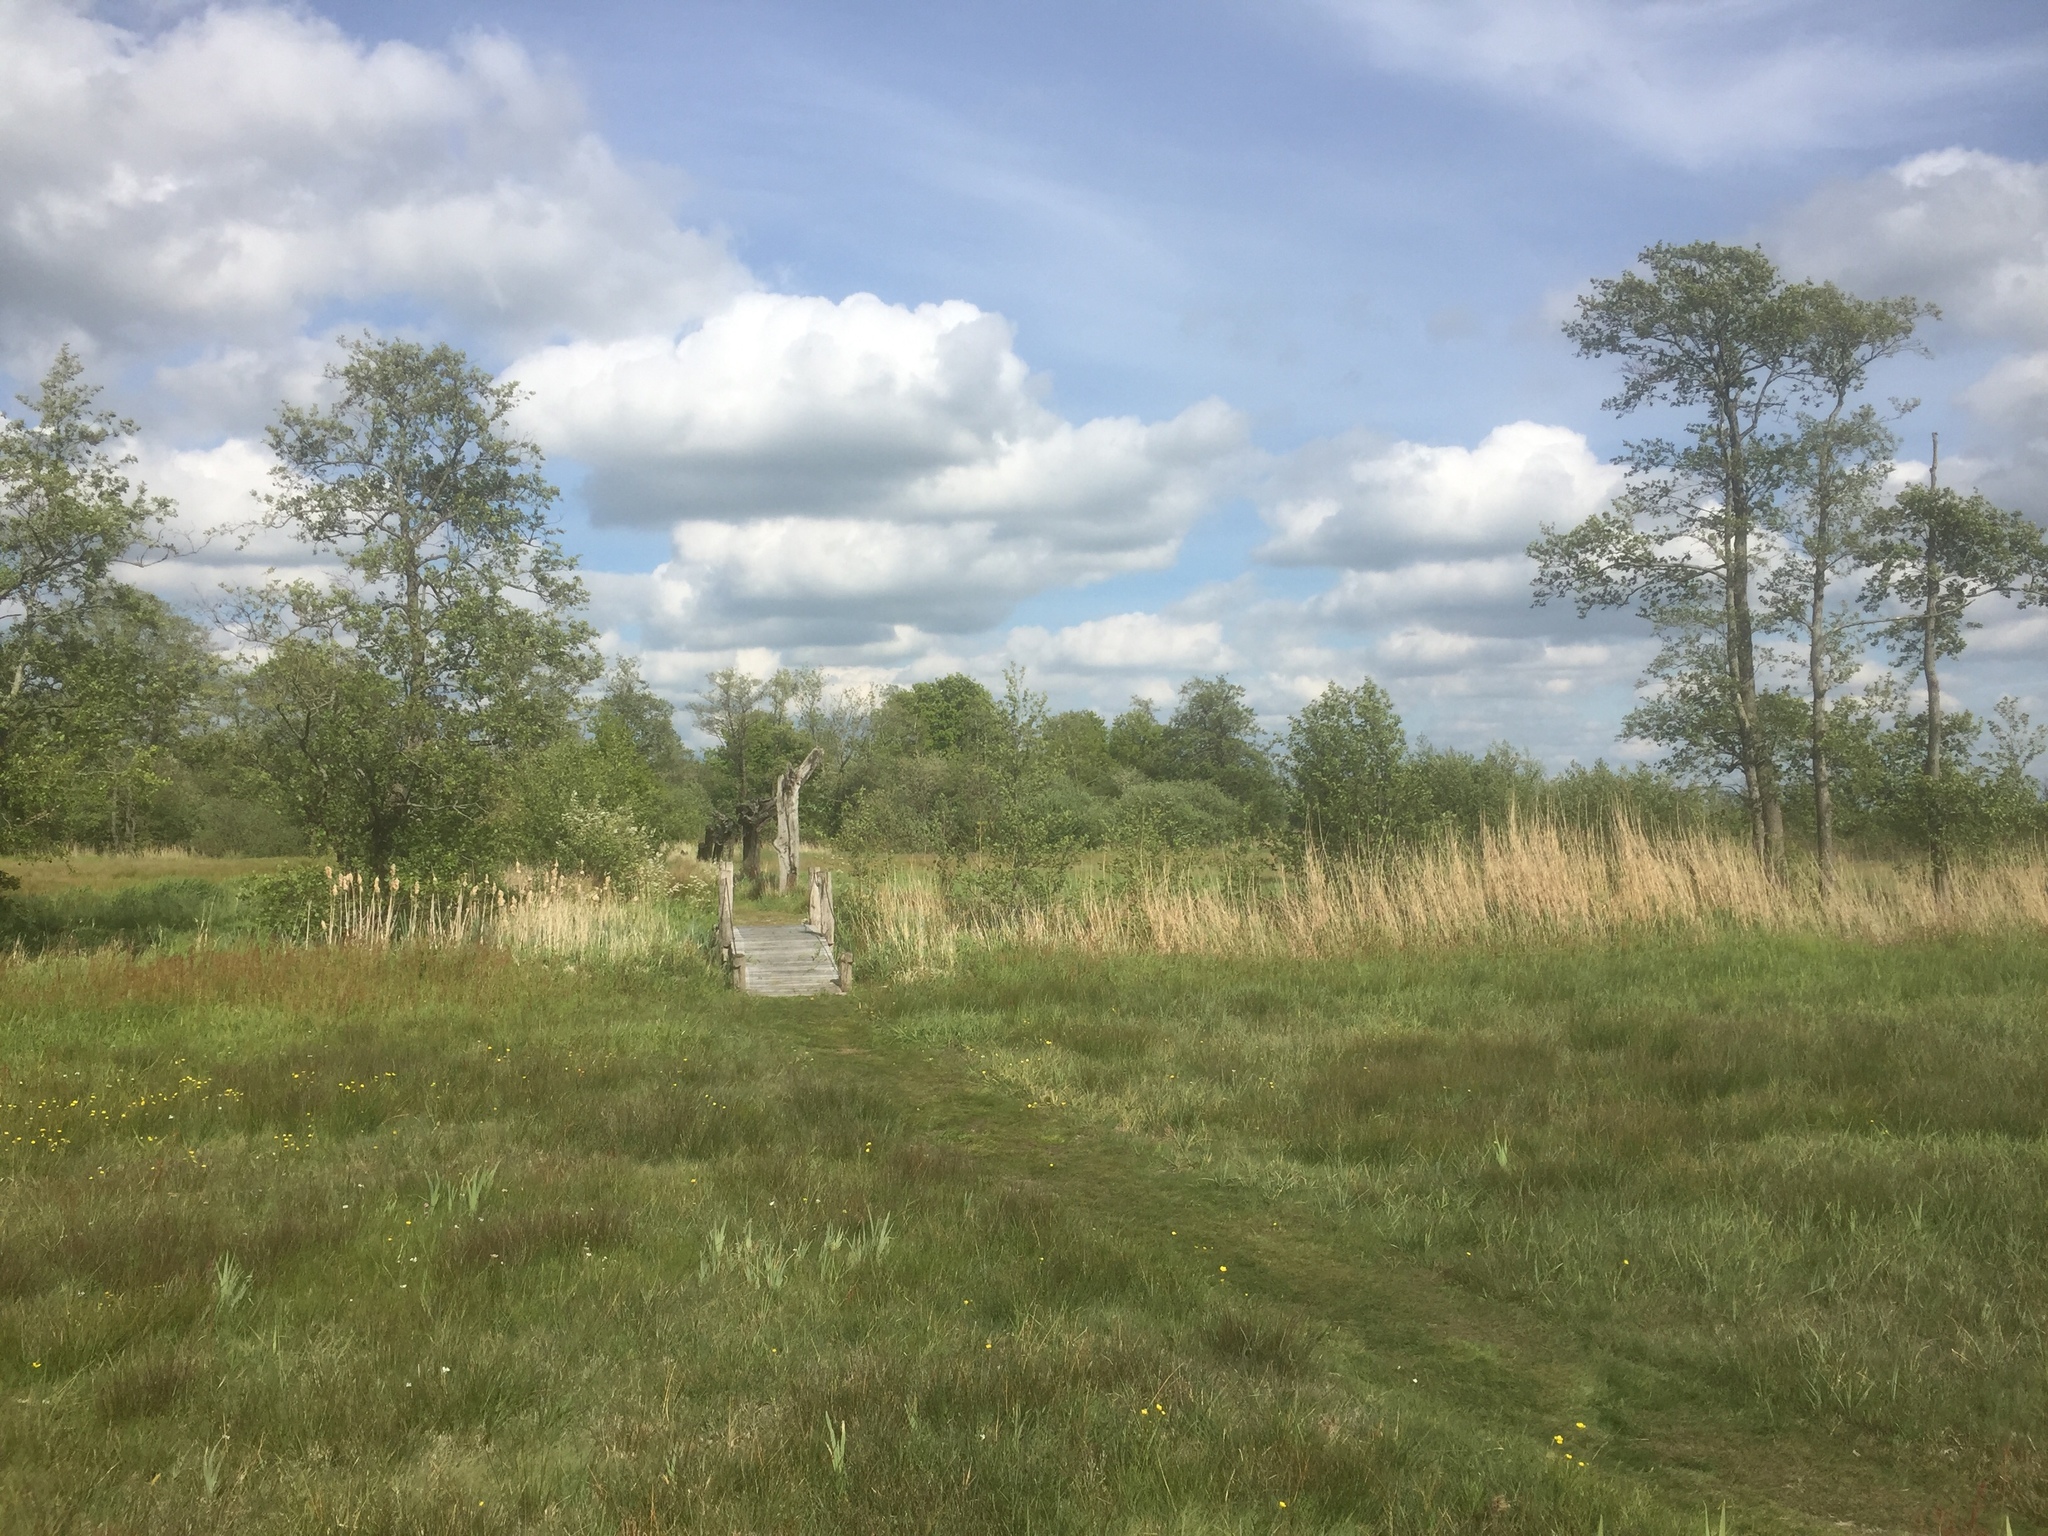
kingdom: Plantae
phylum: Tracheophyta
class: Liliopsida
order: Poales
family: Poaceae
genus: Phragmites
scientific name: Phragmites australis
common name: Common reed
